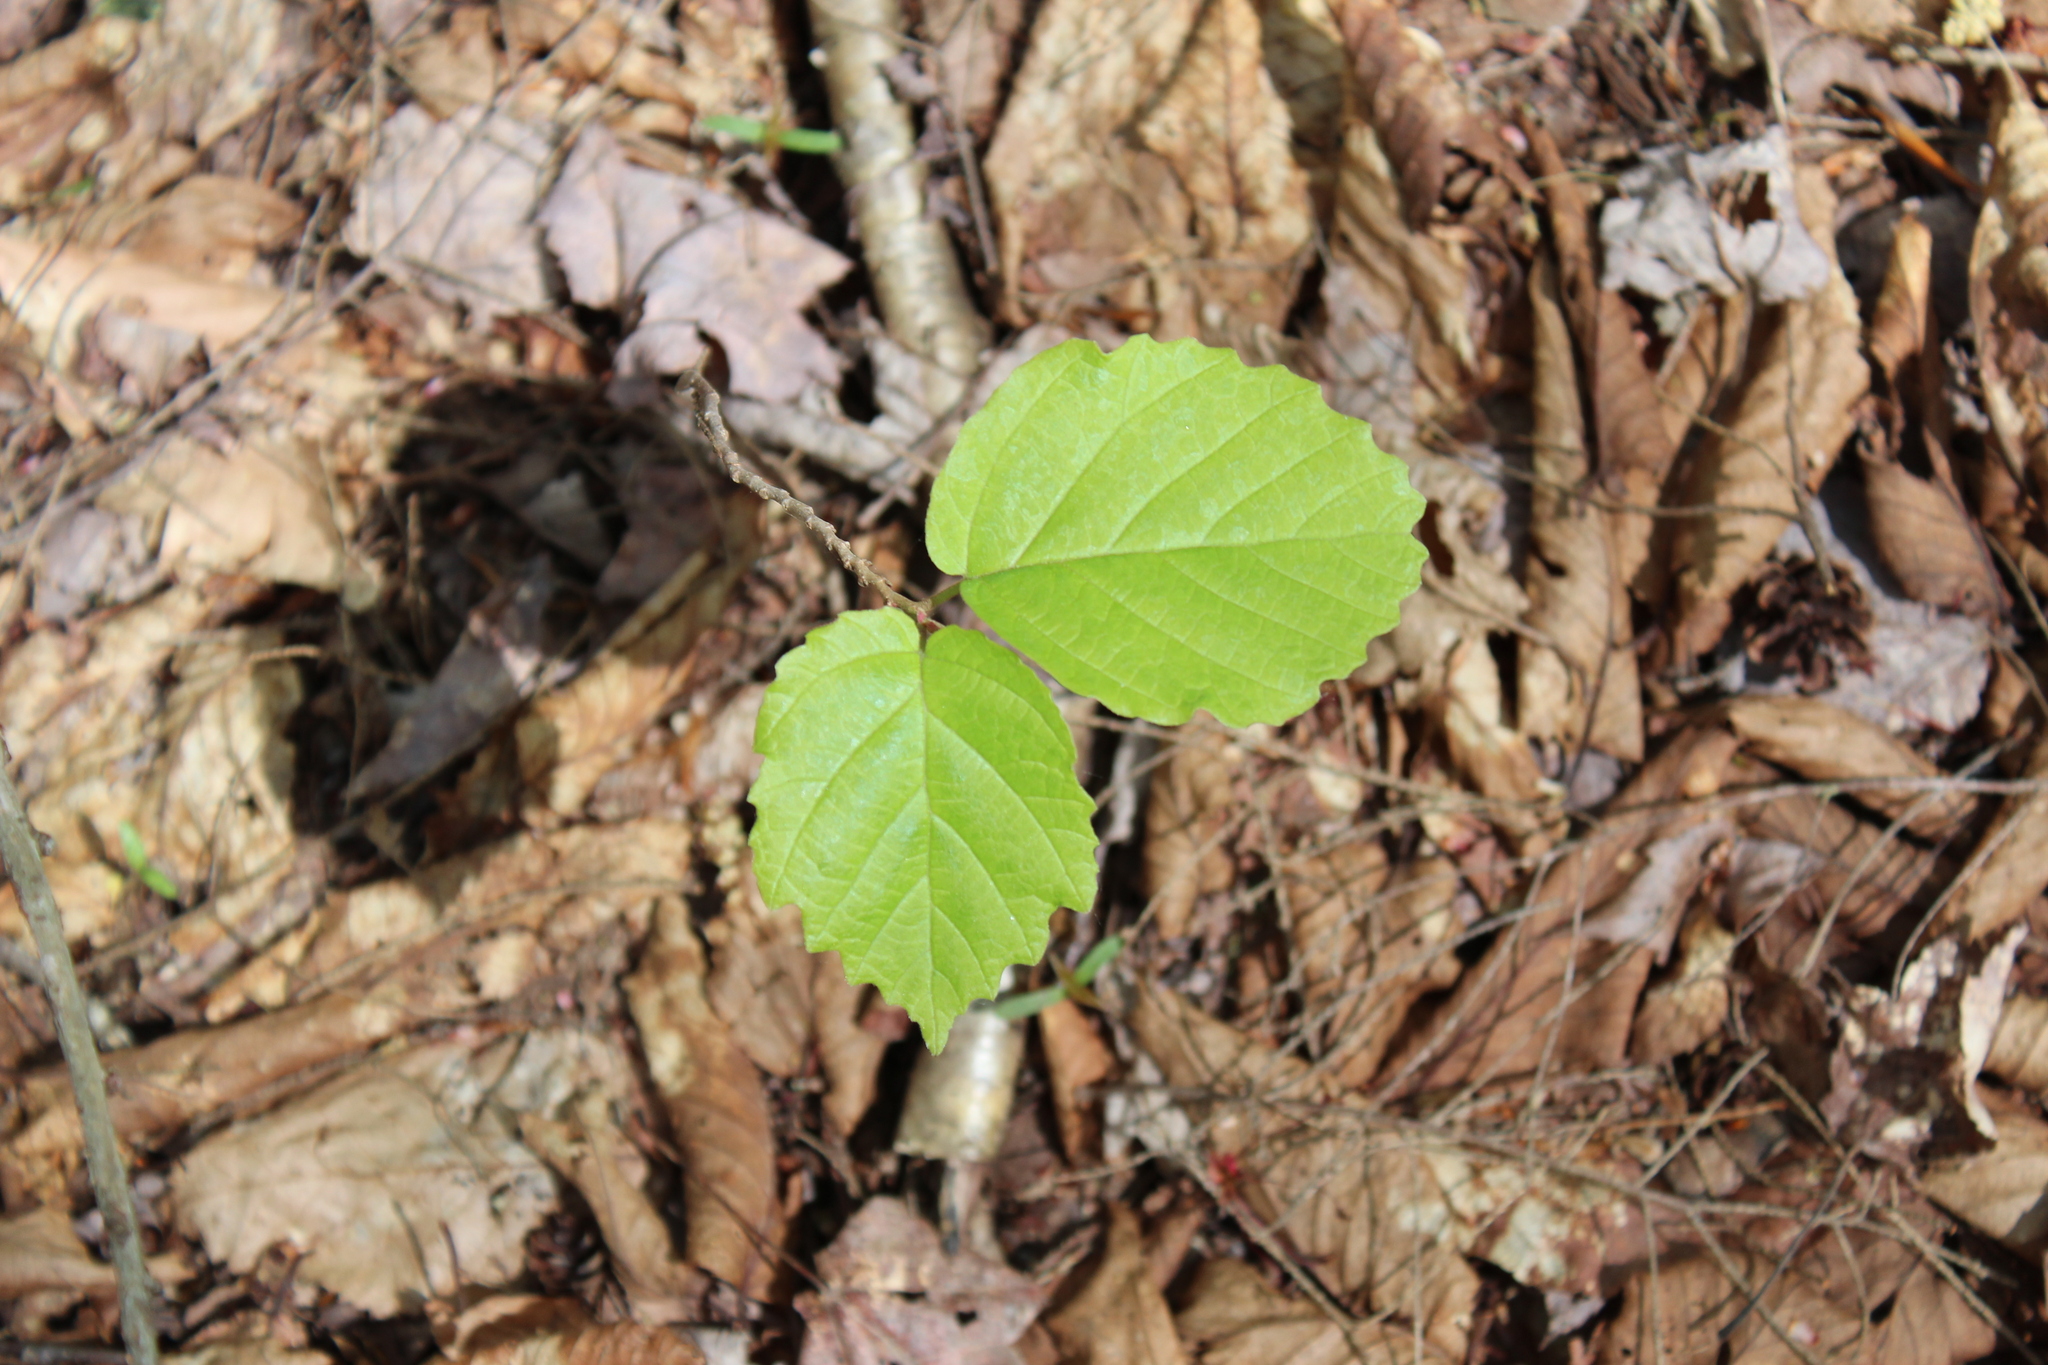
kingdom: Plantae
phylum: Tracheophyta
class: Magnoliopsida
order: Saxifragales
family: Hamamelidaceae
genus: Hamamelis
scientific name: Hamamelis virginiana
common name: Witch-hazel
